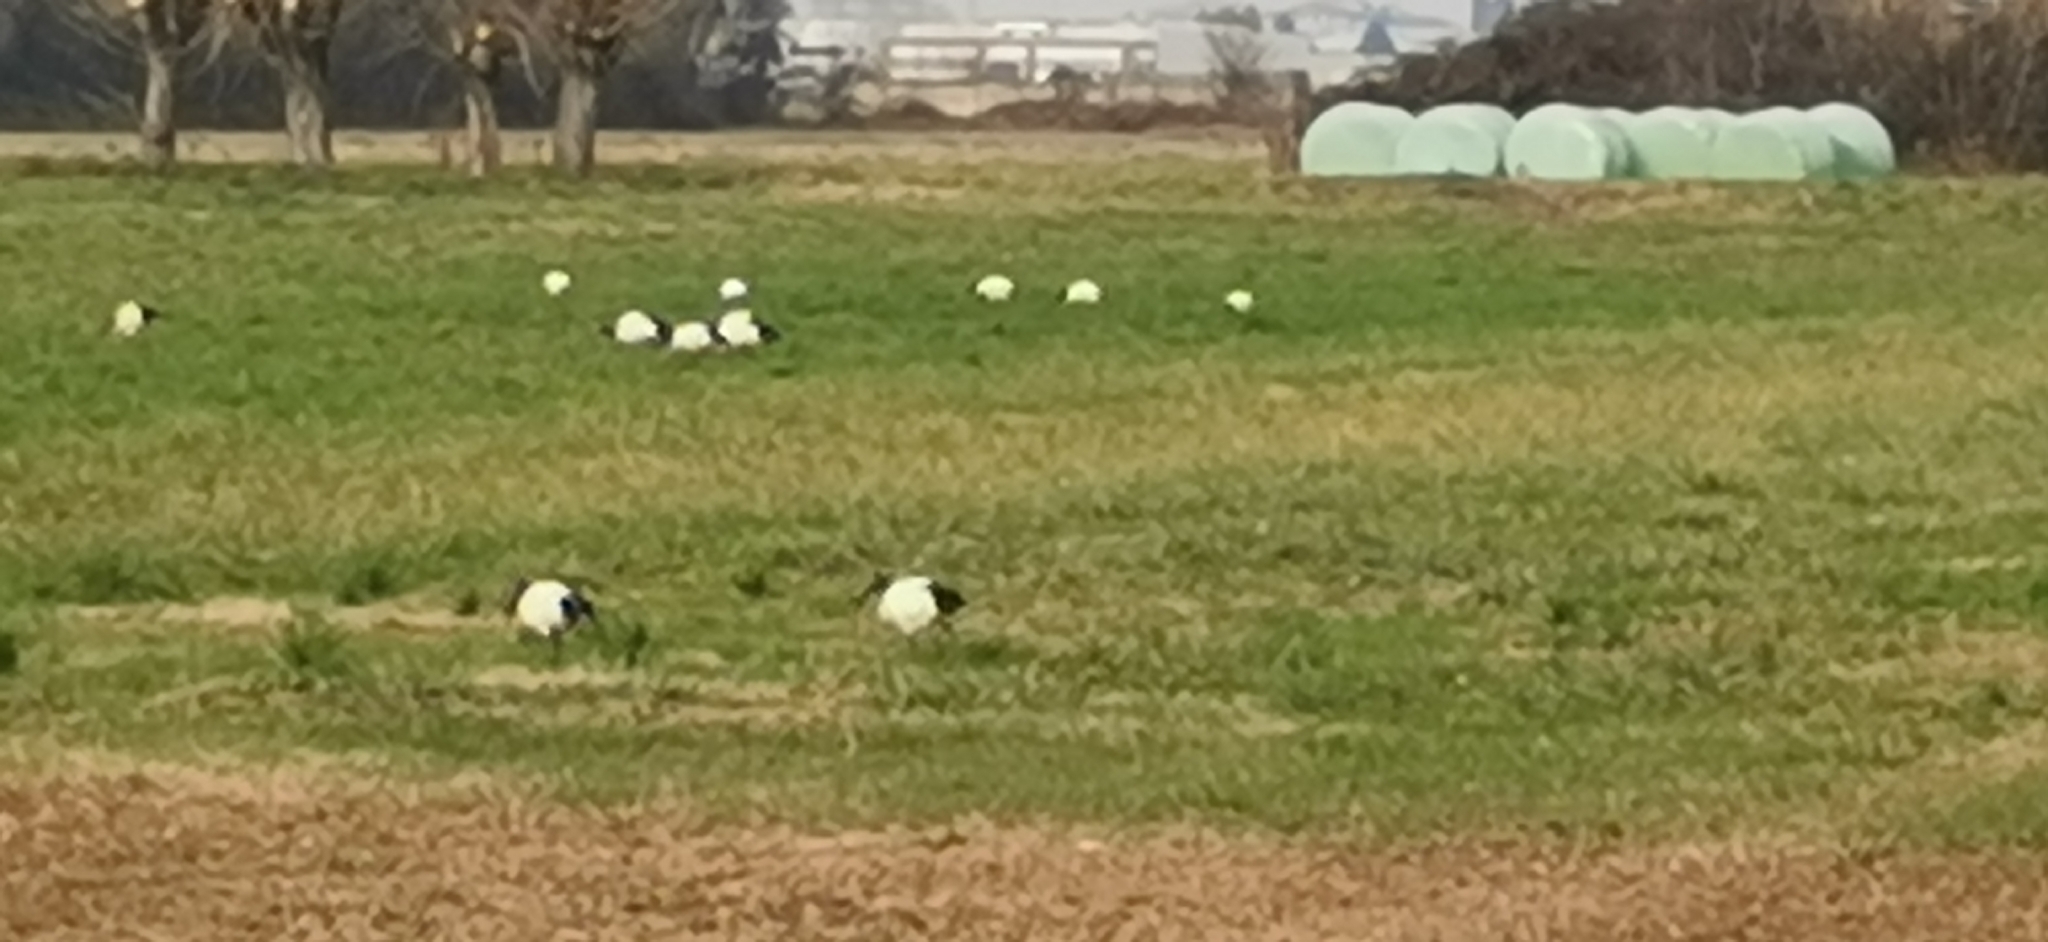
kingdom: Animalia
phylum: Chordata
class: Aves
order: Pelecaniformes
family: Threskiornithidae
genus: Threskiornis
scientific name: Threskiornis aethiopicus
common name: Sacred ibis
